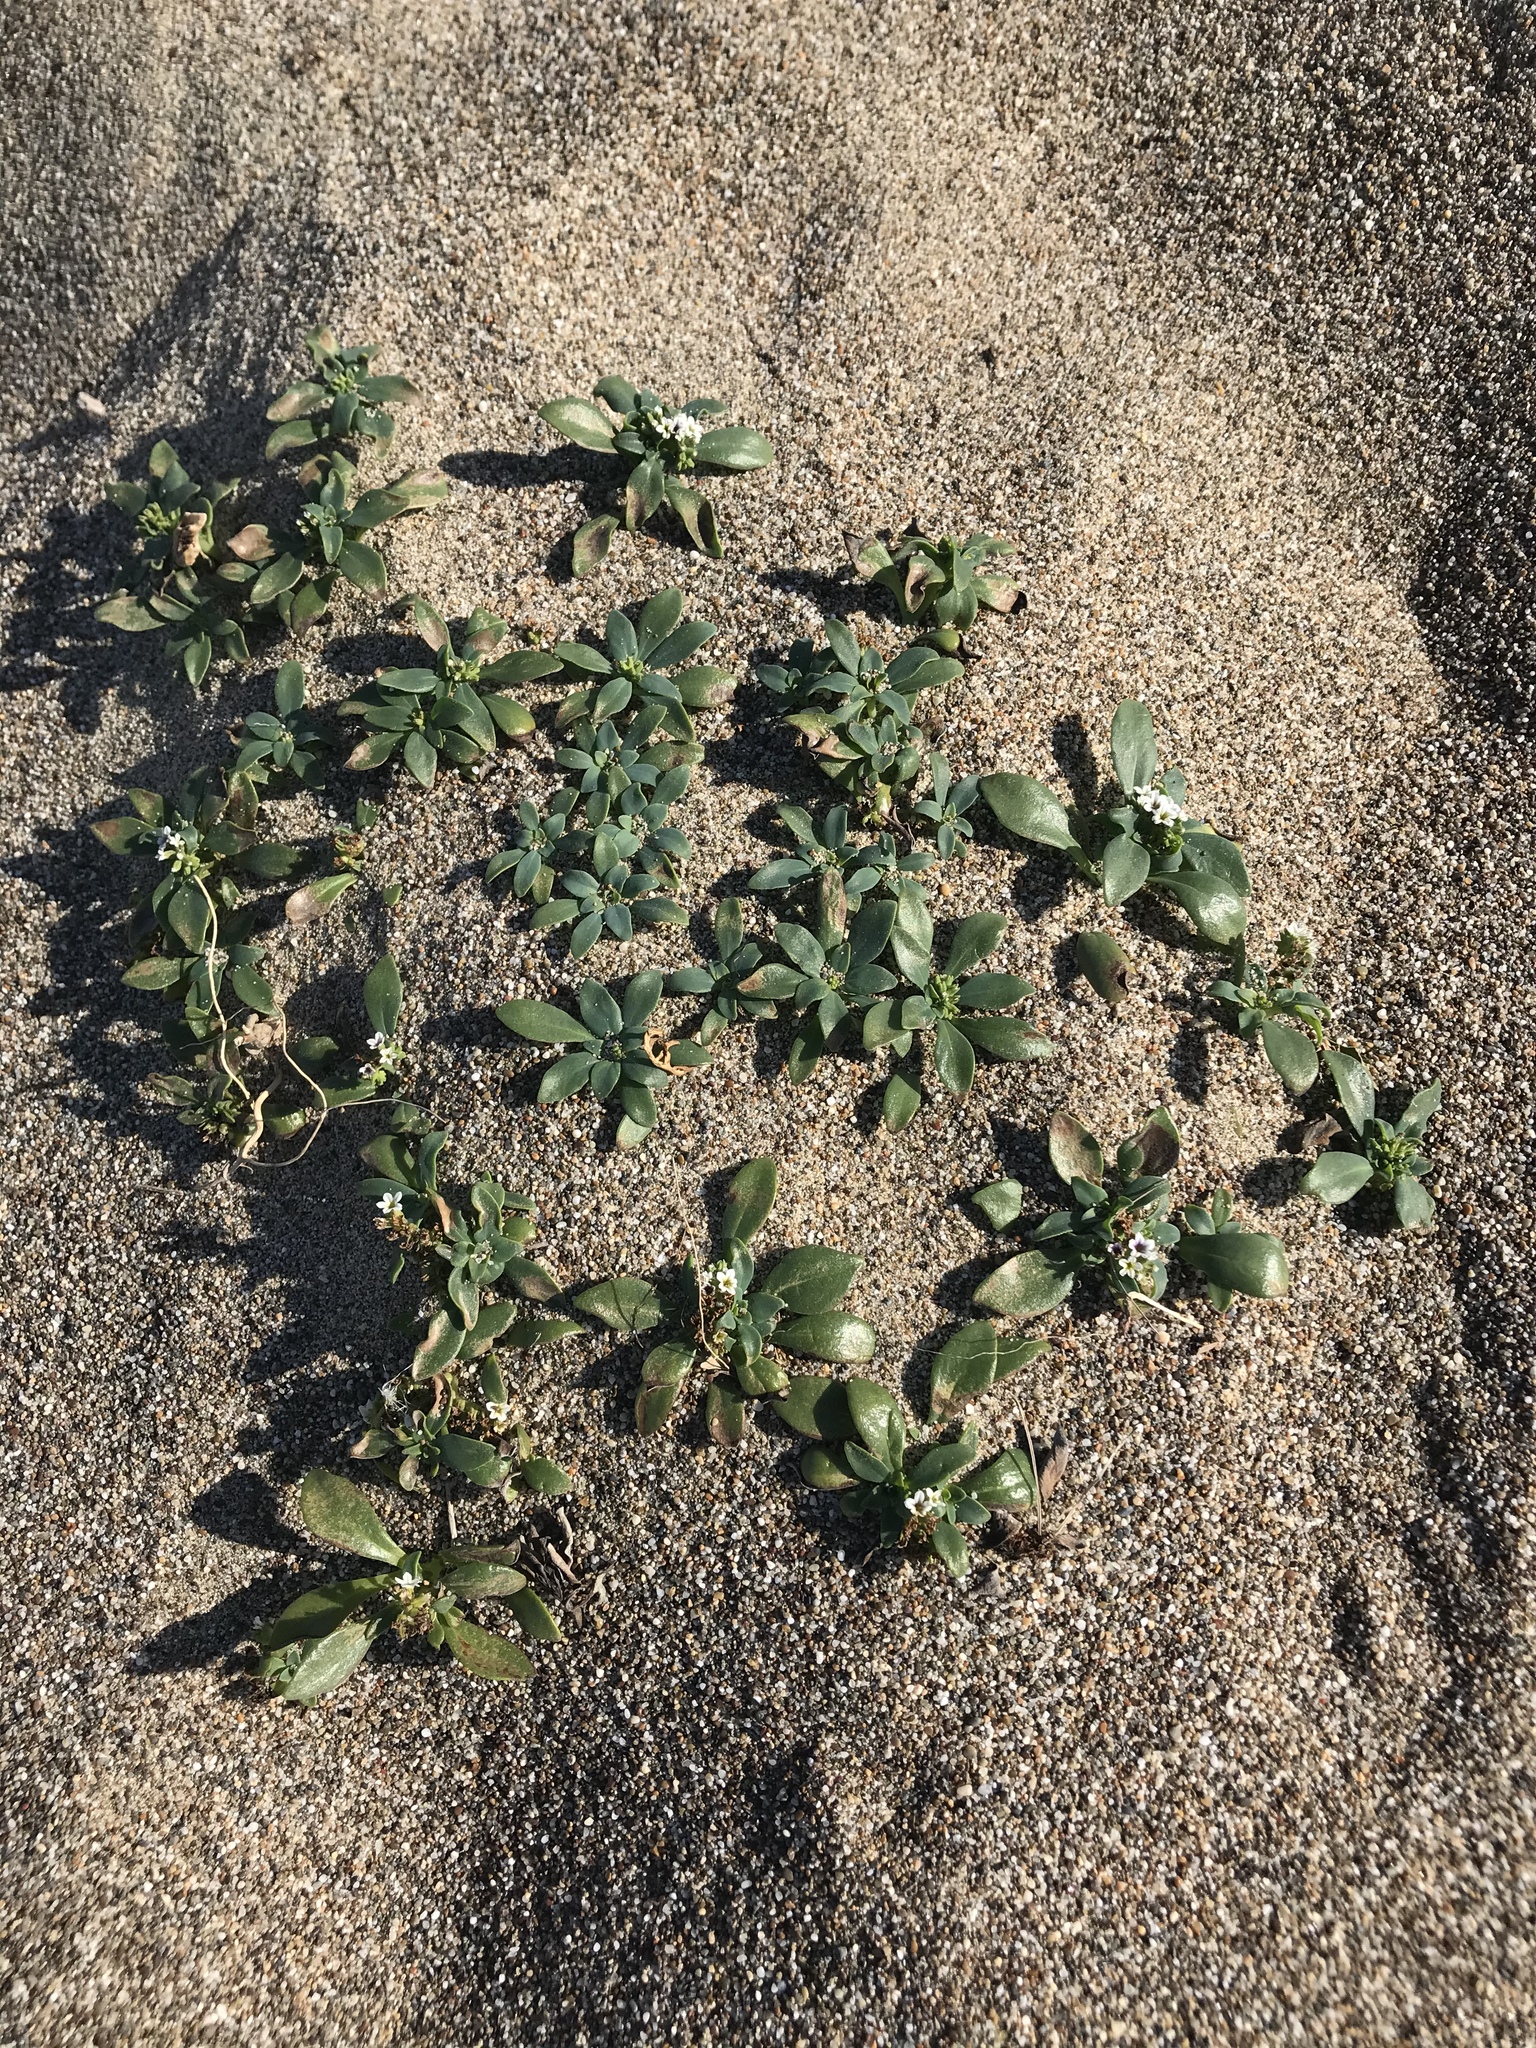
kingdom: Plantae
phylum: Tracheophyta
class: Magnoliopsida
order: Boraginales
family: Heliotropiaceae
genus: Heliotropium
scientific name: Heliotropium curassavicum
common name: Seaside heliotrope
